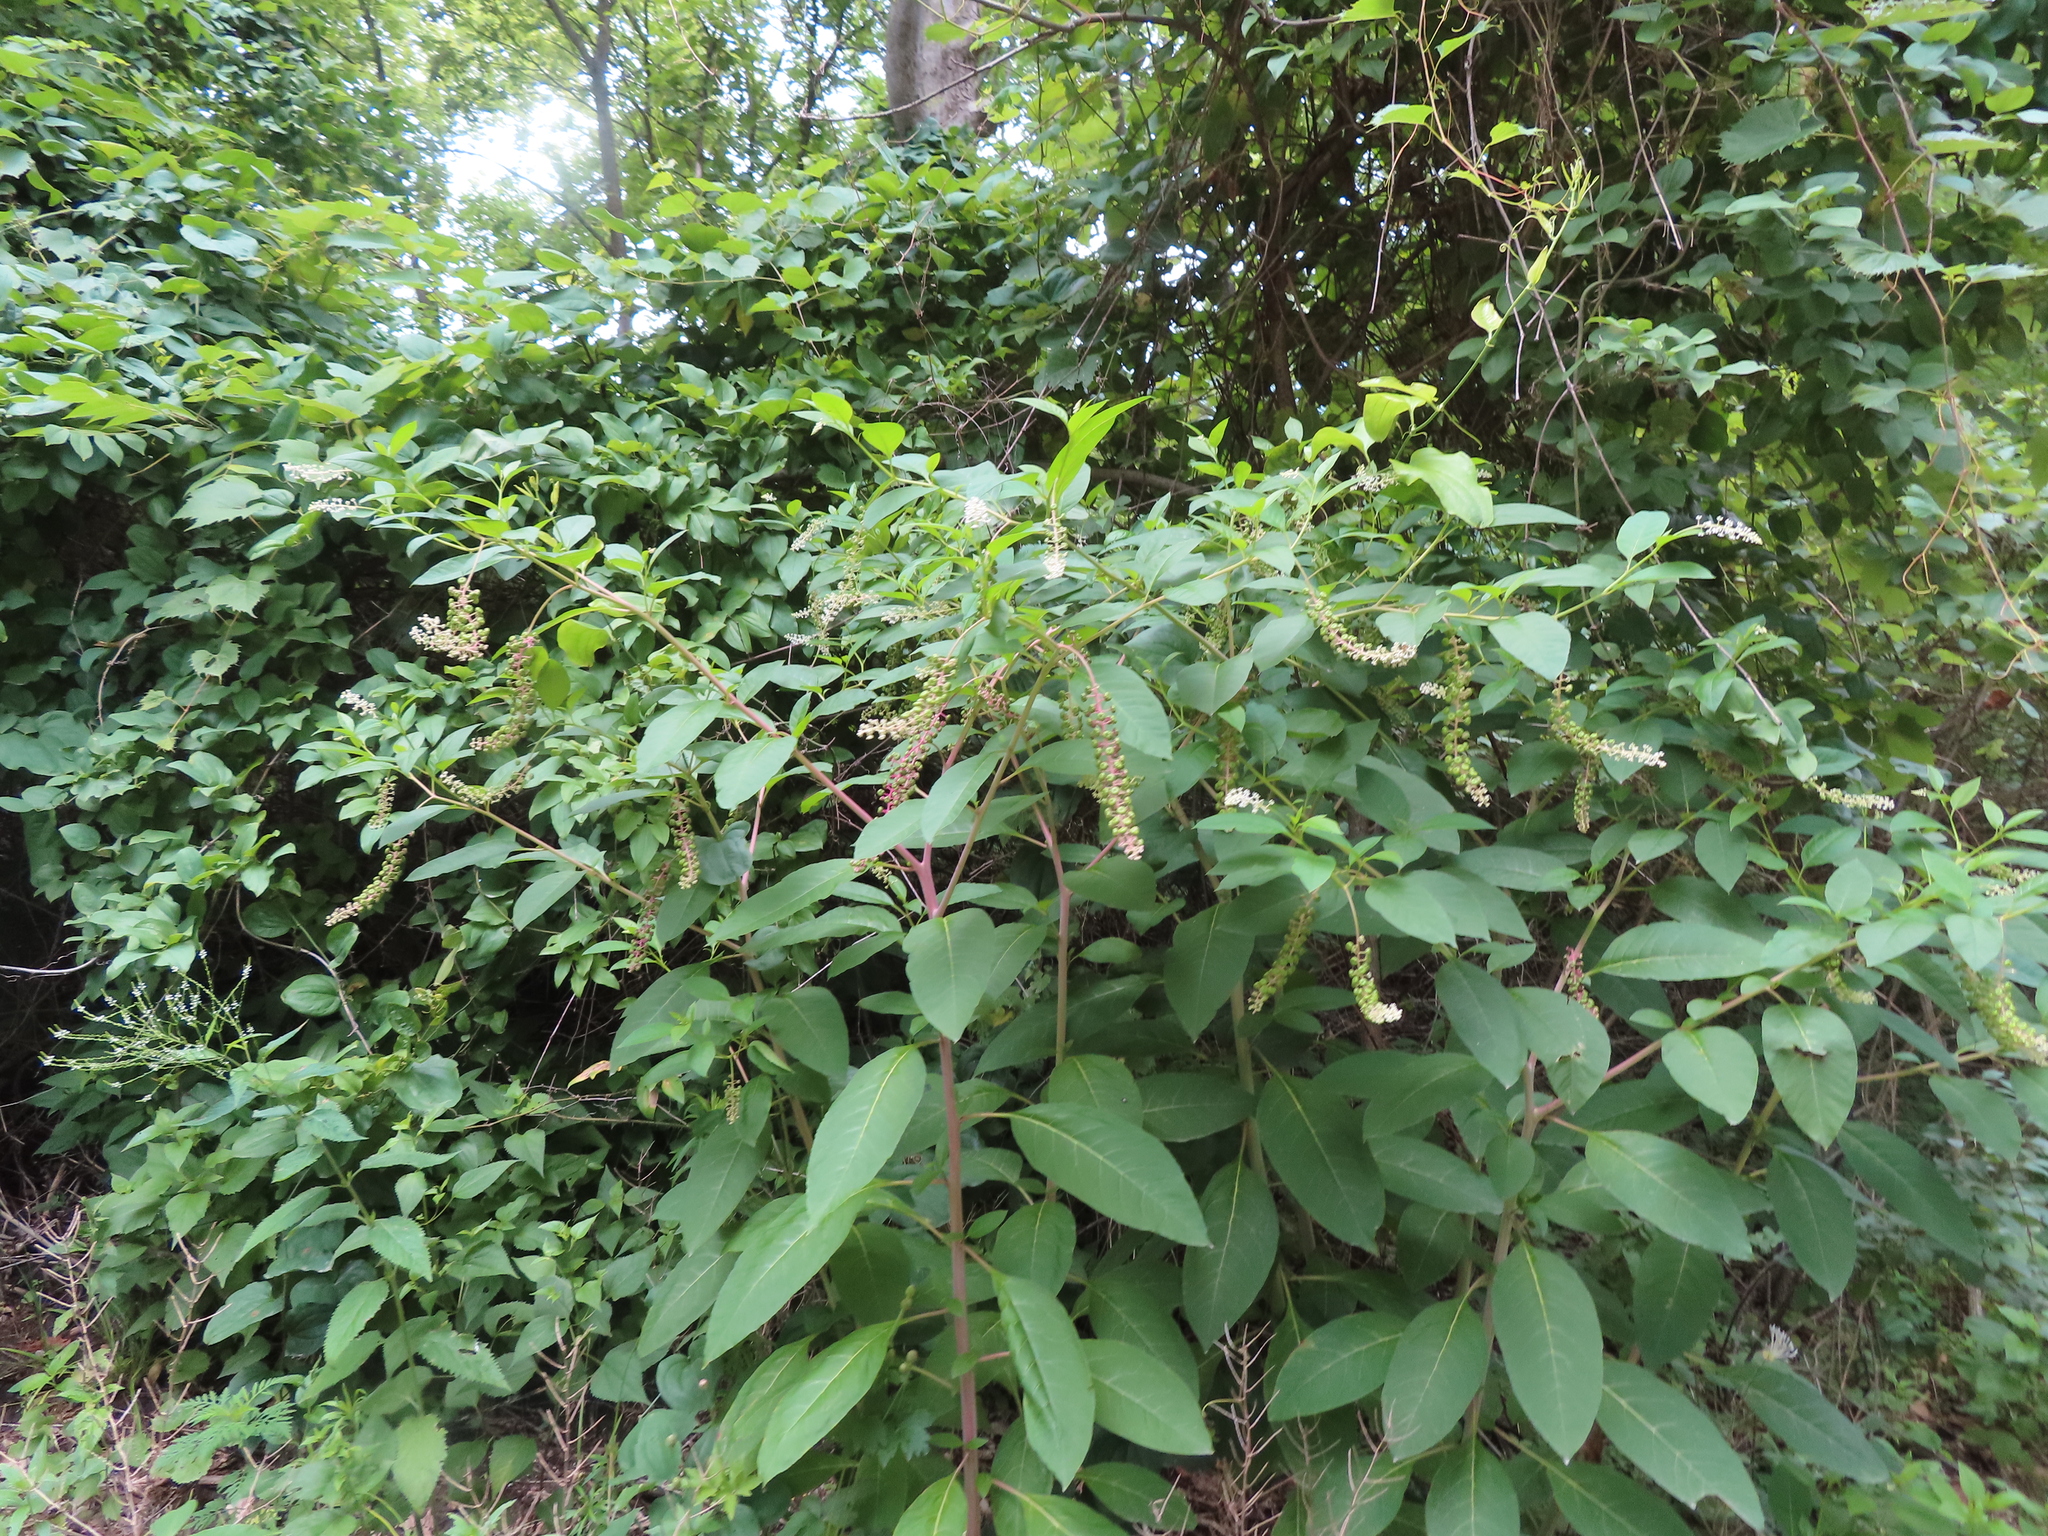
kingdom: Plantae
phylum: Tracheophyta
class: Magnoliopsida
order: Caryophyllales
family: Phytolaccaceae
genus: Phytolacca
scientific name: Phytolacca americana
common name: American pokeweed
